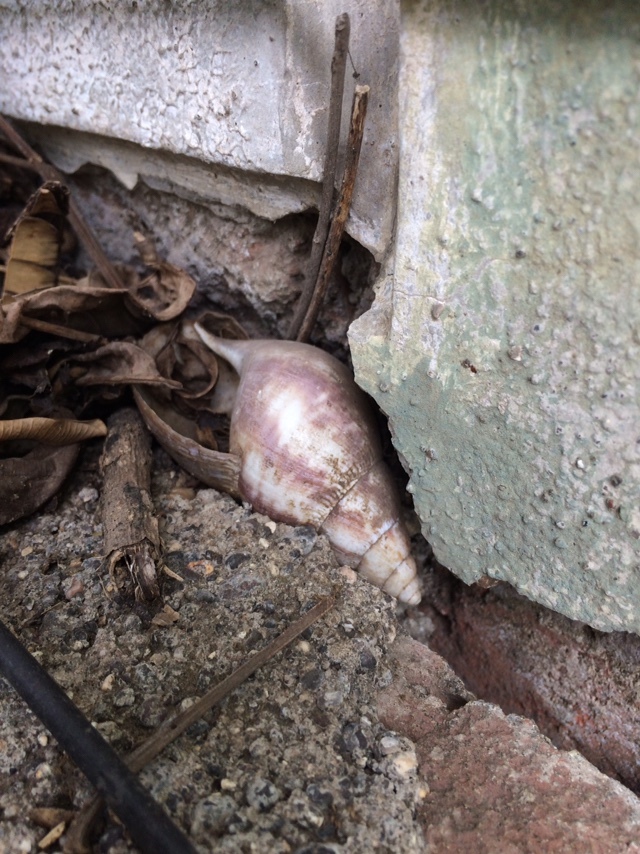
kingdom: Animalia
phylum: Mollusca
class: Gastropoda
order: Stylommatophora
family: Achatinidae
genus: Lissachatina
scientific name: Lissachatina fulica
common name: Giant african snail
